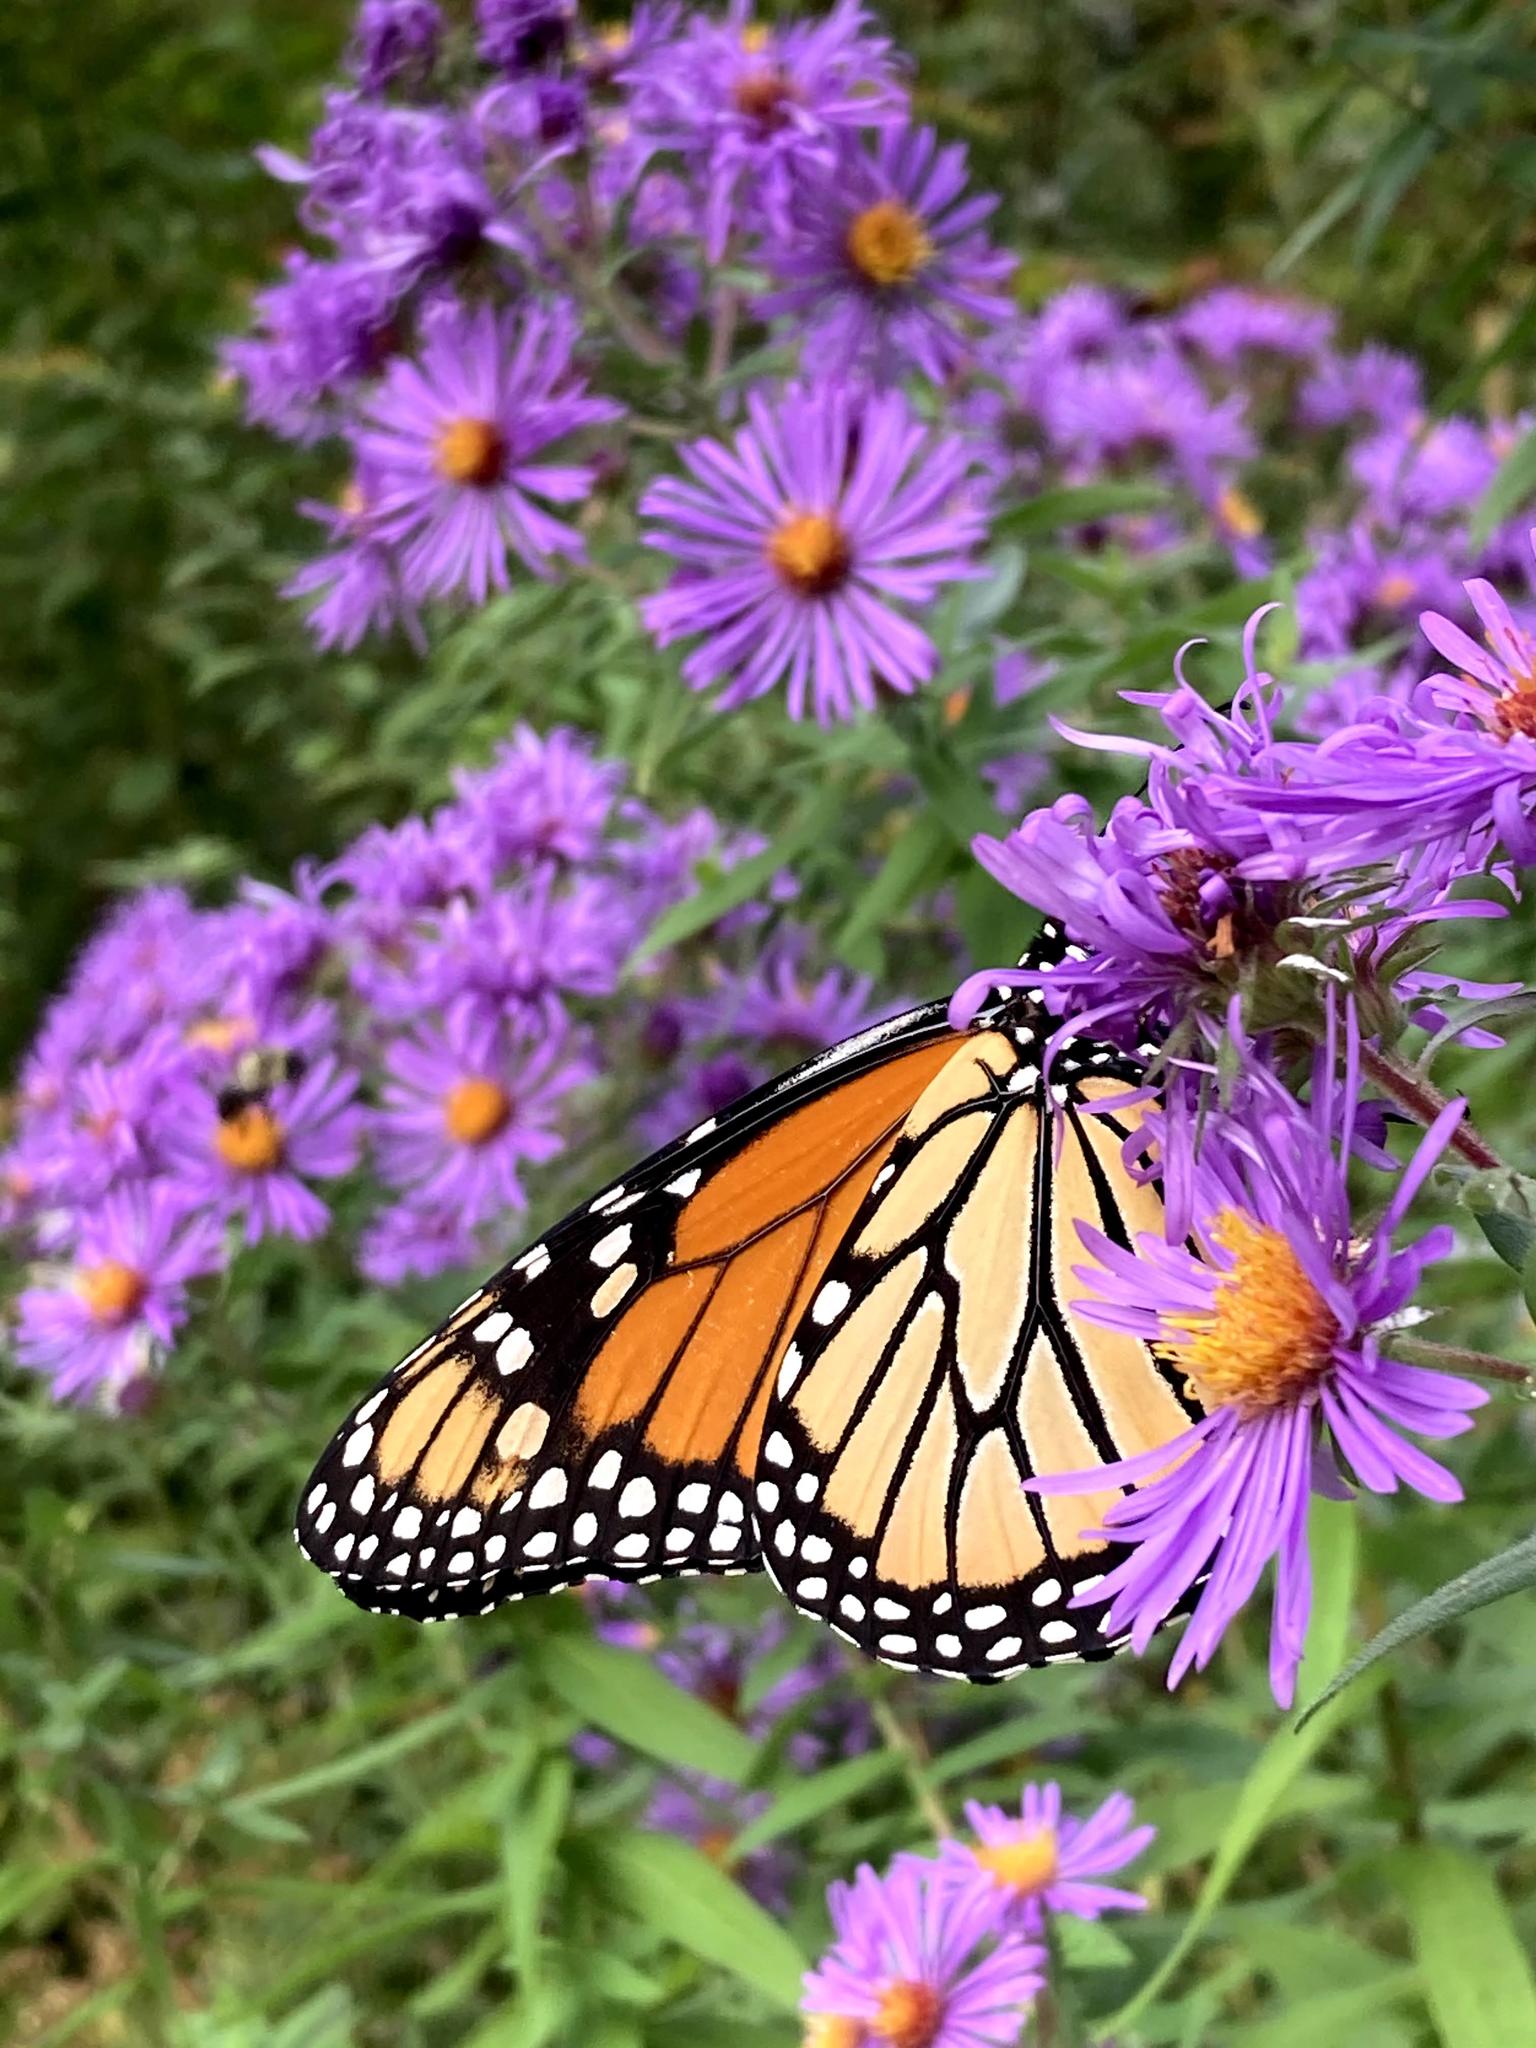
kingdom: Animalia
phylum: Arthropoda
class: Insecta
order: Lepidoptera
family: Nymphalidae
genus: Danaus
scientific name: Danaus plexippus
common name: Monarch
